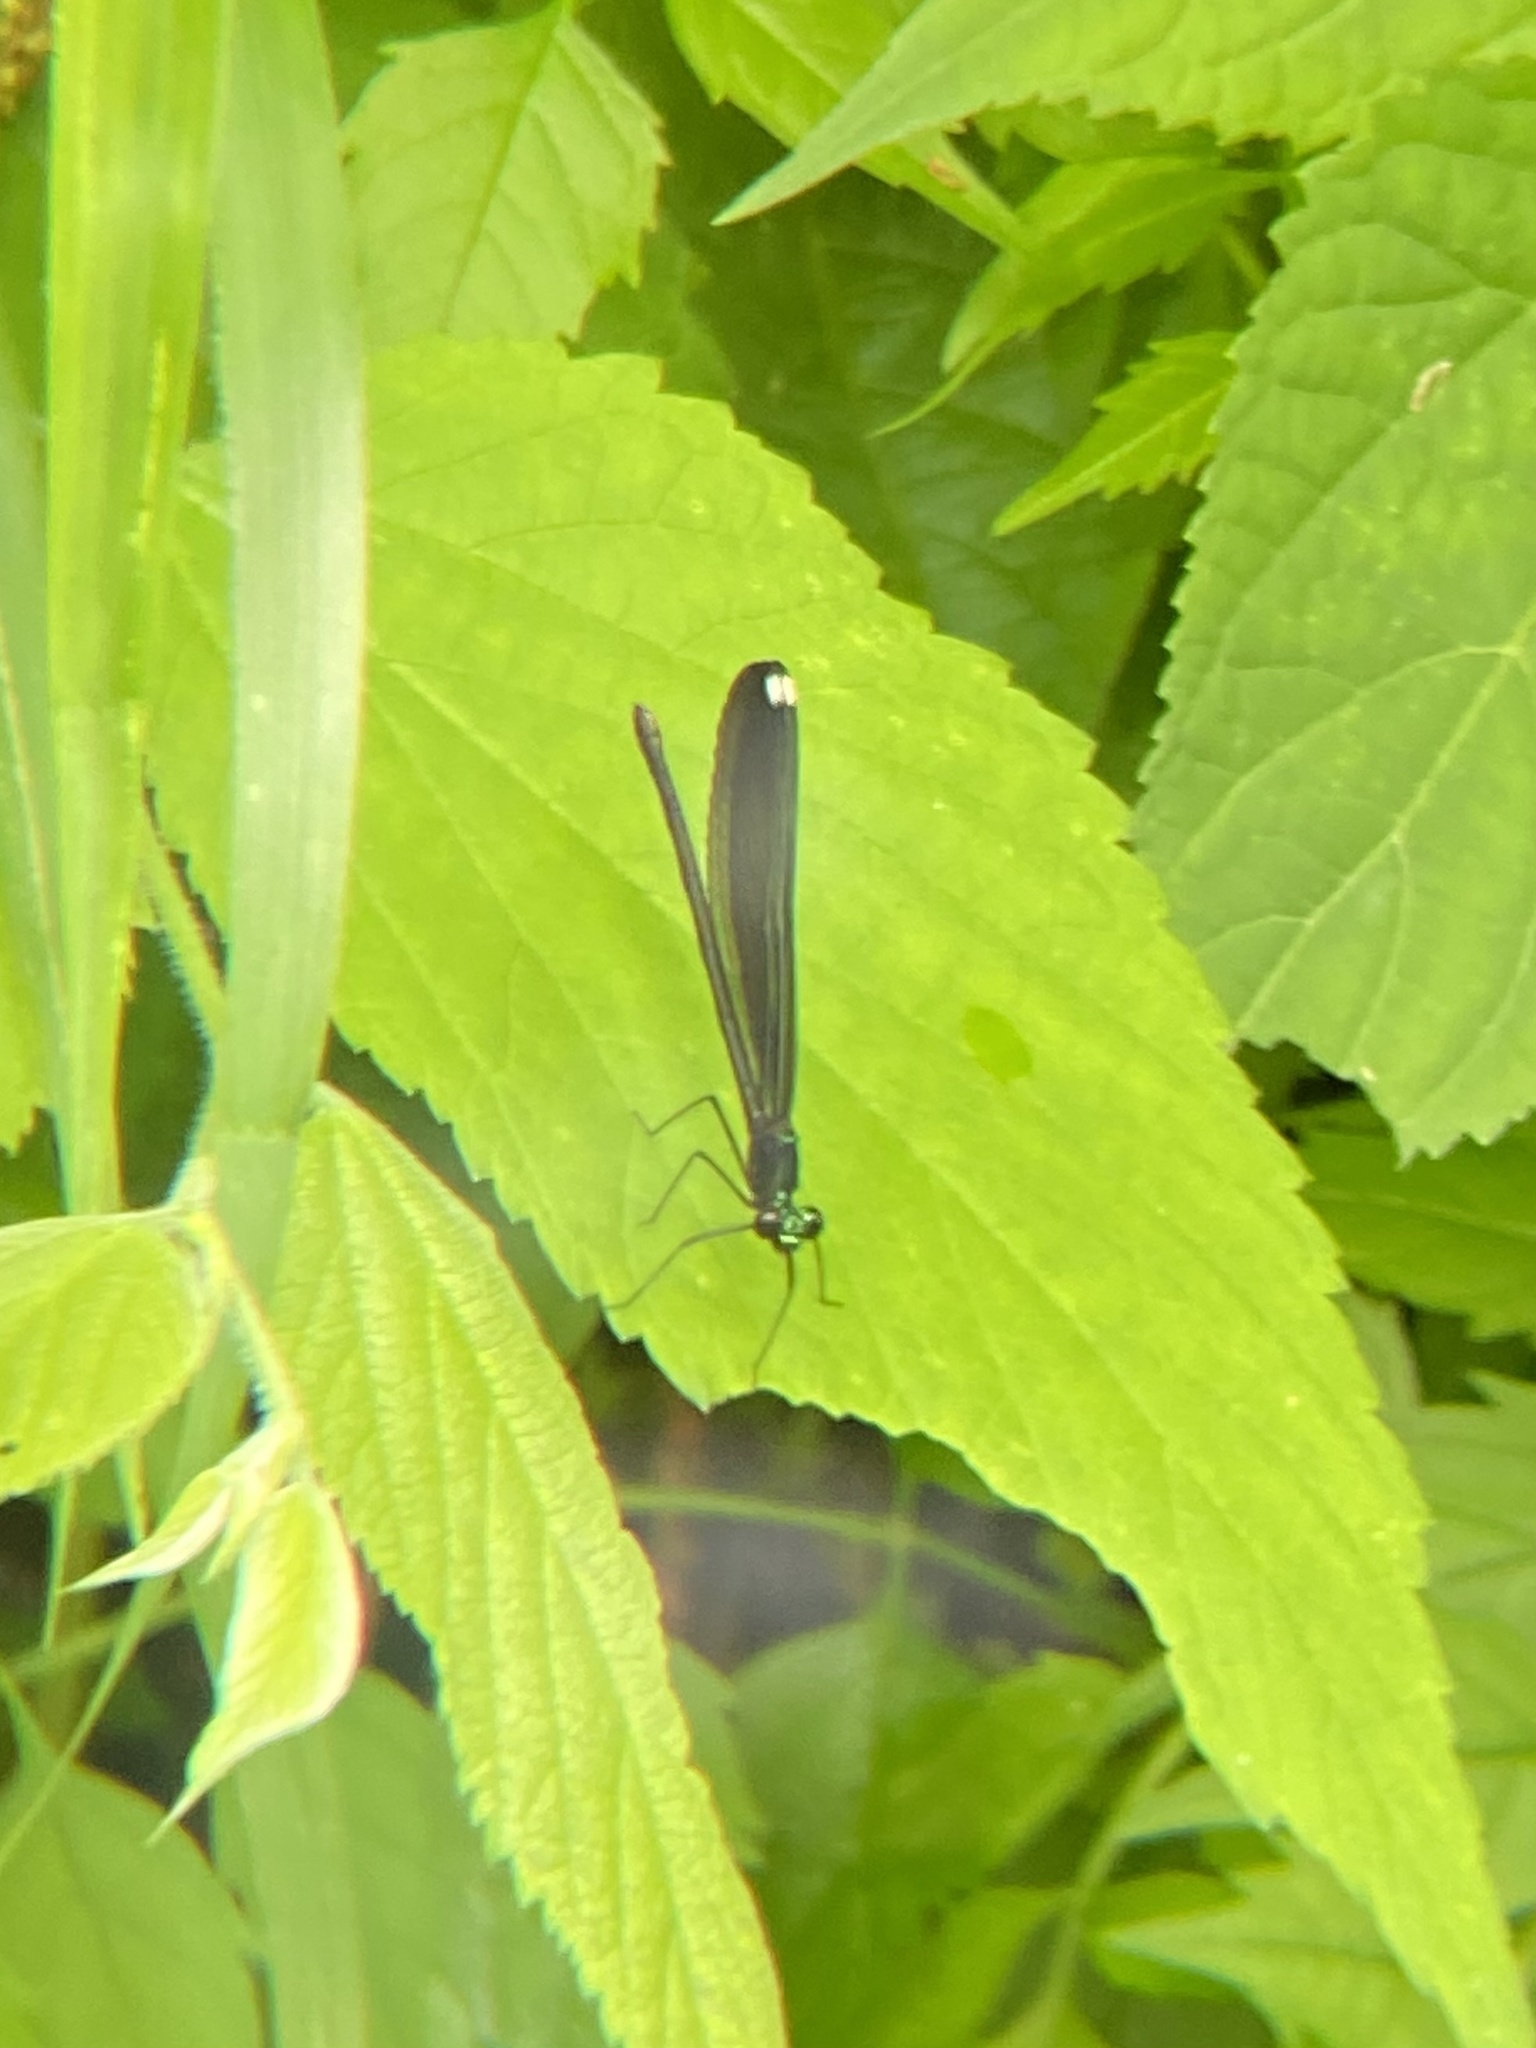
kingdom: Animalia
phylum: Arthropoda
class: Insecta
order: Odonata
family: Calopterygidae
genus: Calopteryx
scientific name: Calopteryx maculata
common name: Ebony jewelwing
